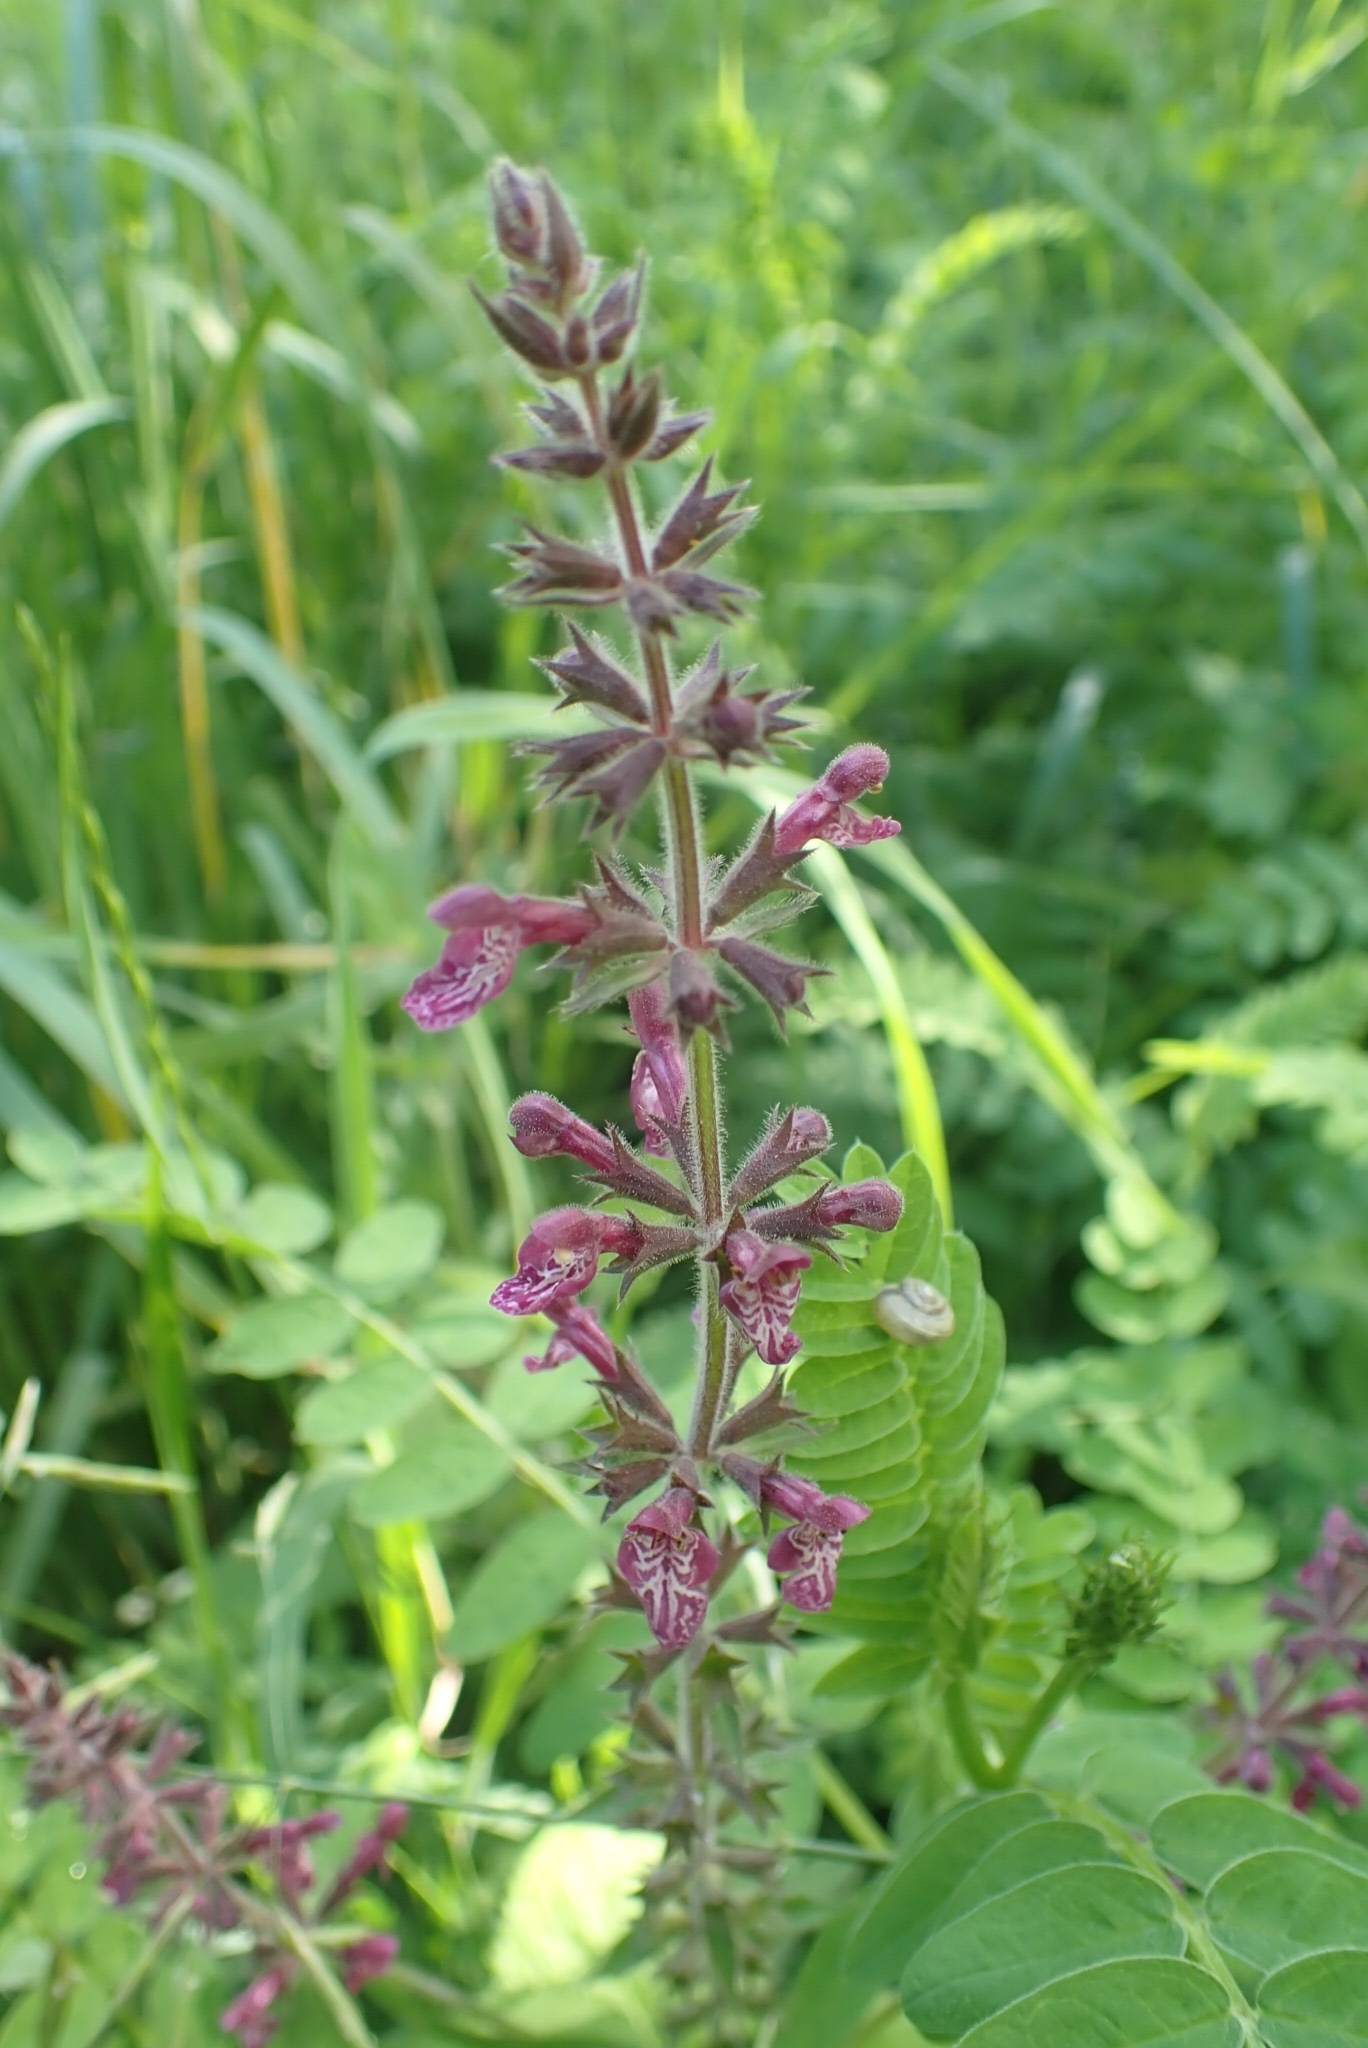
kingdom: Plantae
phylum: Tracheophyta
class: Magnoliopsida
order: Lamiales
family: Lamiaceae
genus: Stachys
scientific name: Stachys sylvatica
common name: Hedge woundwort
